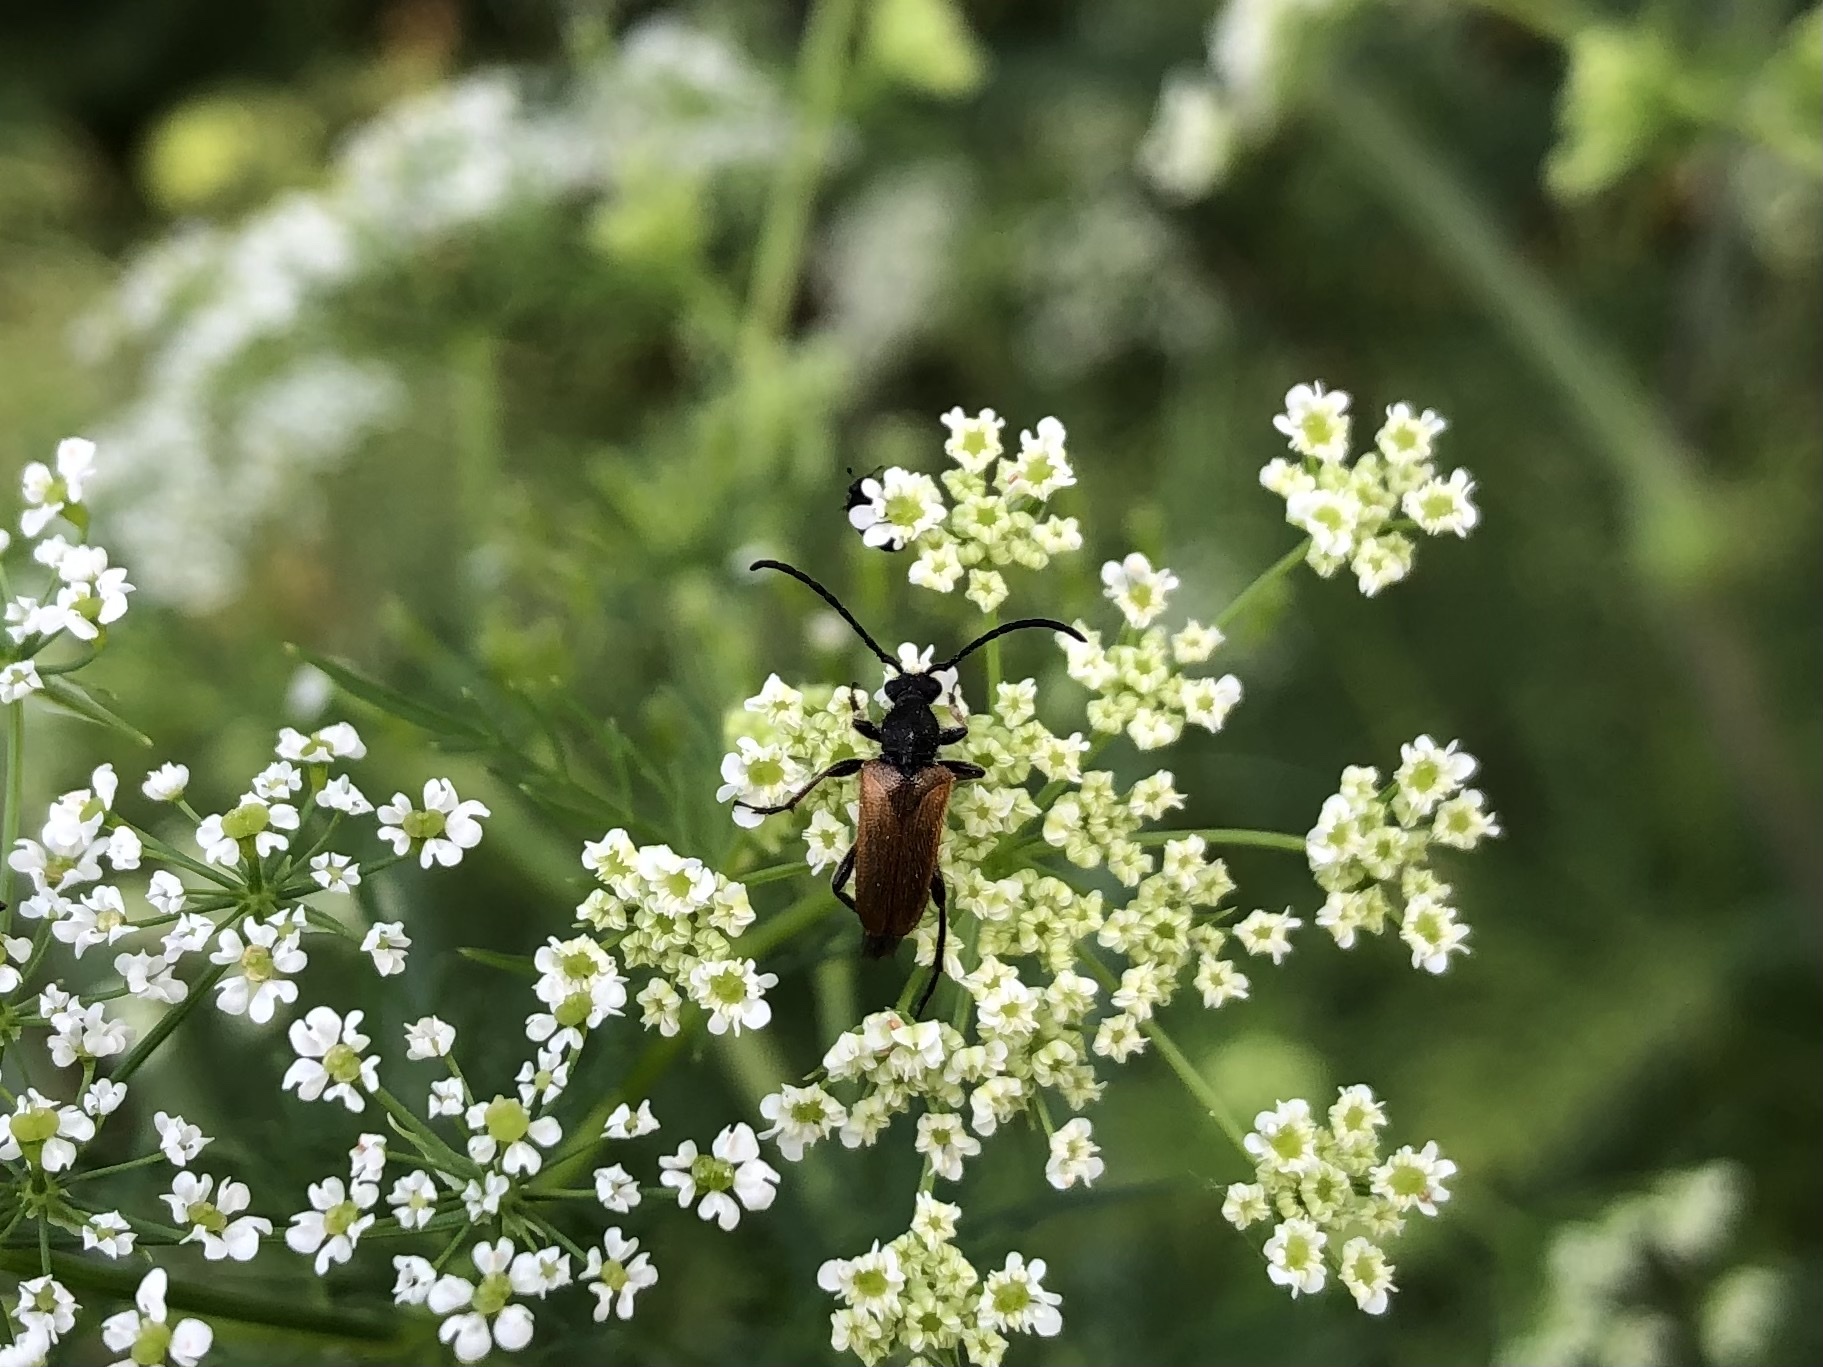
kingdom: Animalia
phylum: Arthropoda
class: Insecta
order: Coleoptera
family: Cerambycidae
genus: Pseudovadonia
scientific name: Pseudovadonia livida
